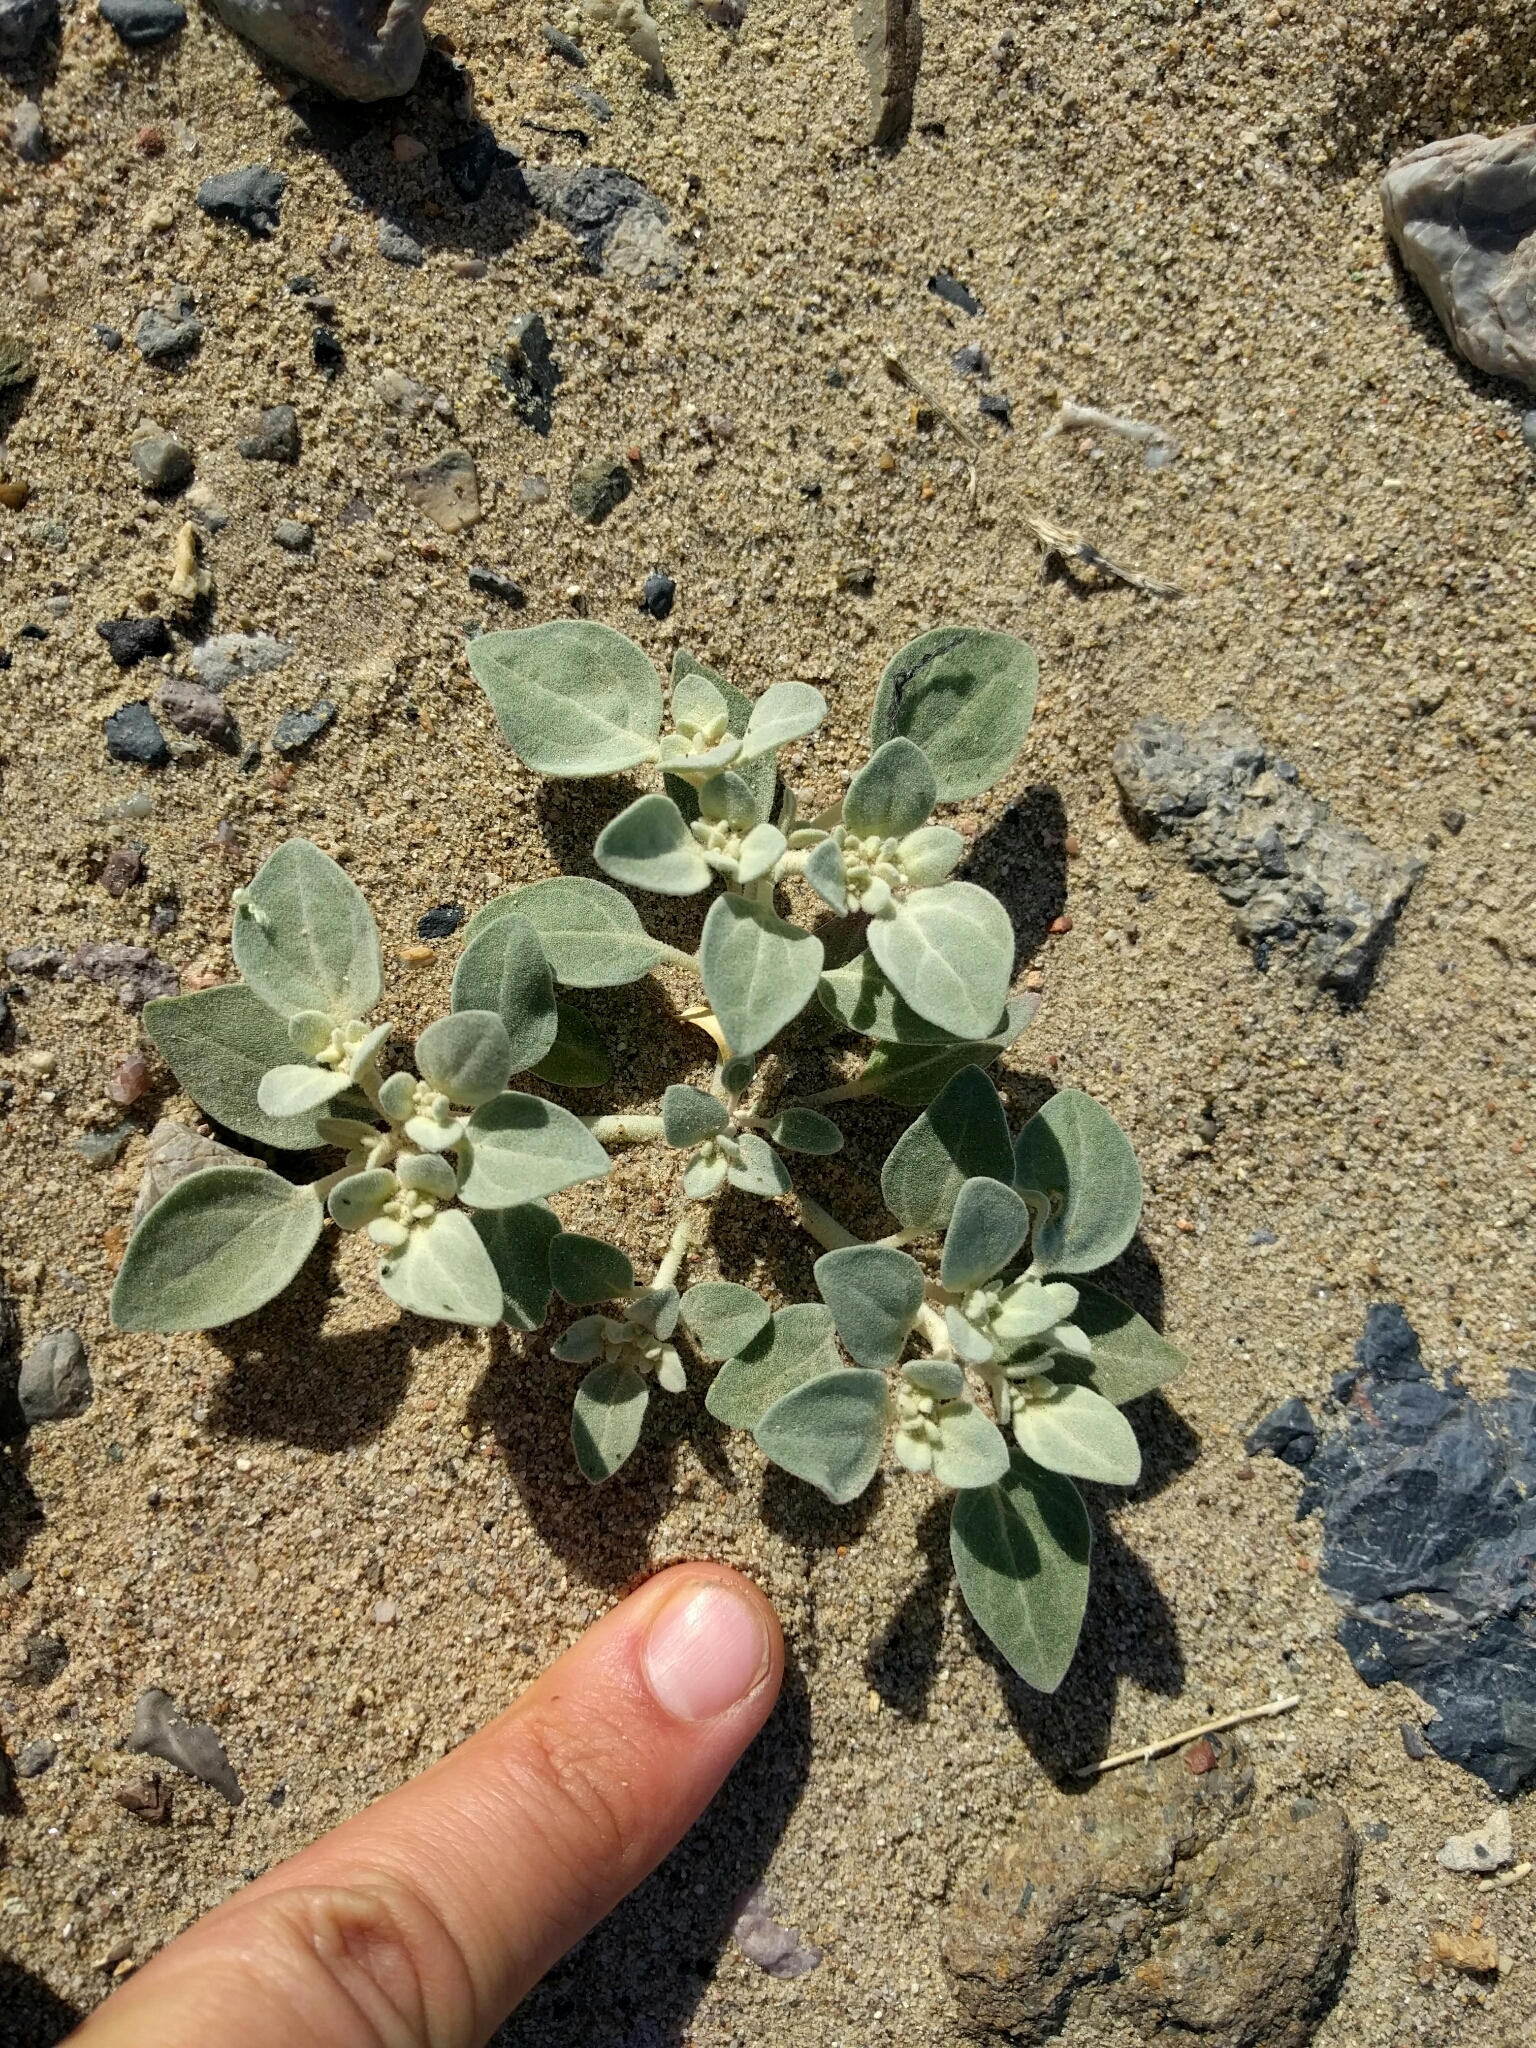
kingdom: Plantae
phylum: Tracheophyta
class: Magnoliopsida
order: Caryophyllales
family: Amaranthaceae
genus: Tidestromia
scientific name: Tidestromia suffruticosa
